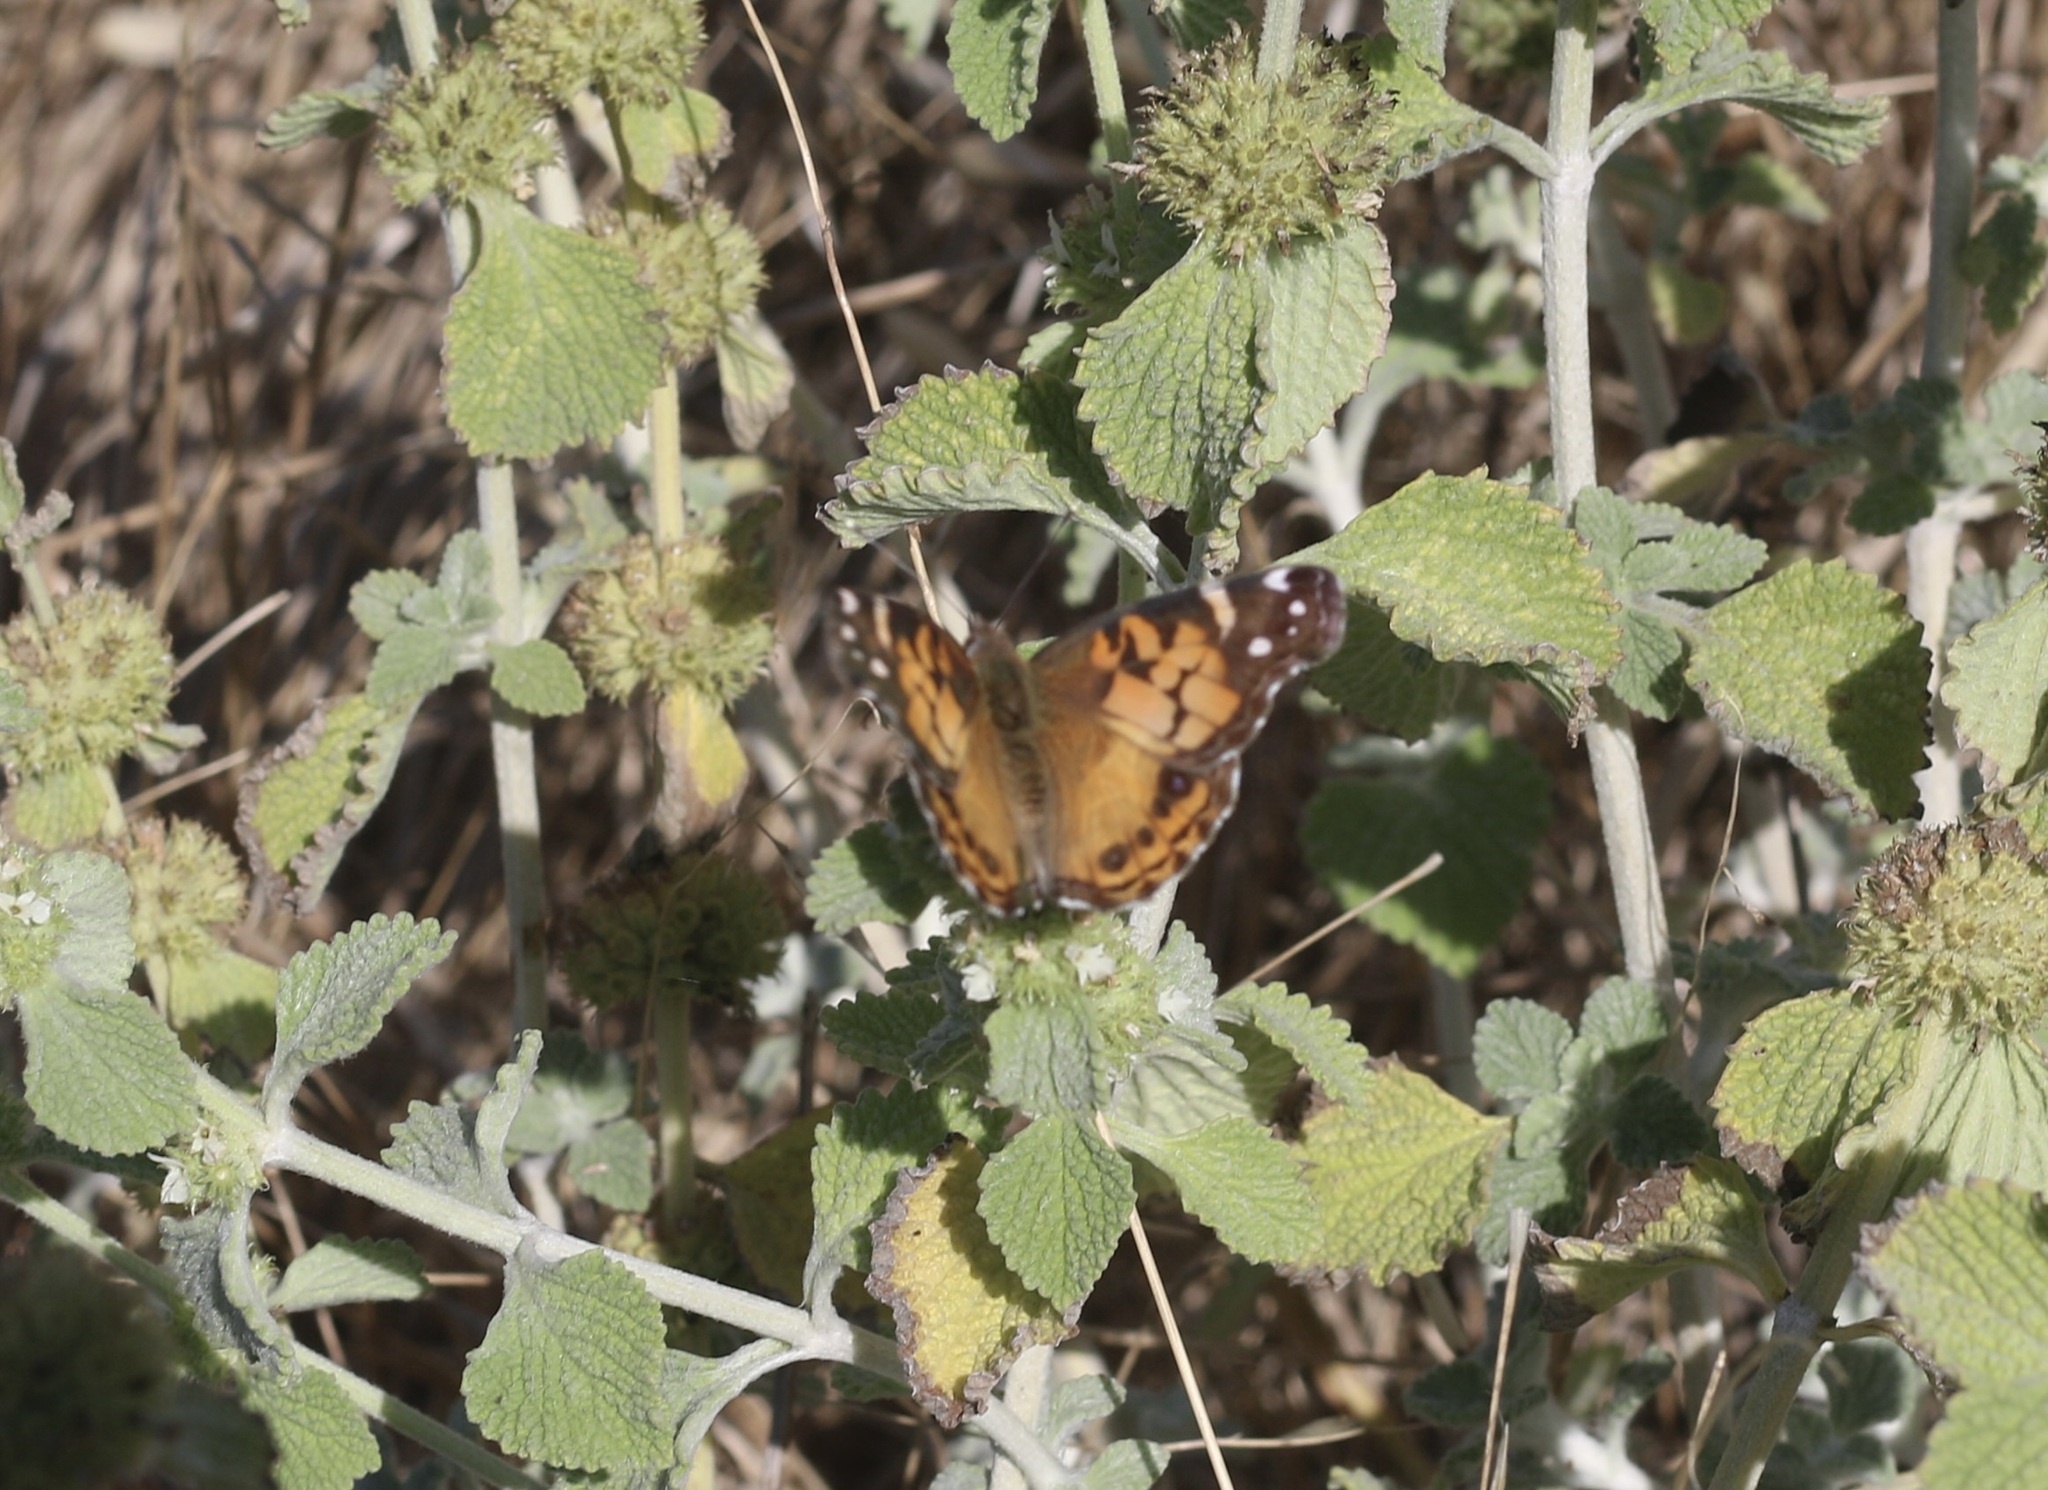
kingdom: Animalia
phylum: Arthropoda
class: Insecta
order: Lepidoptera
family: Nymphalidae
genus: Vanessa
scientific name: Vanessa virginiensis
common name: American lady
